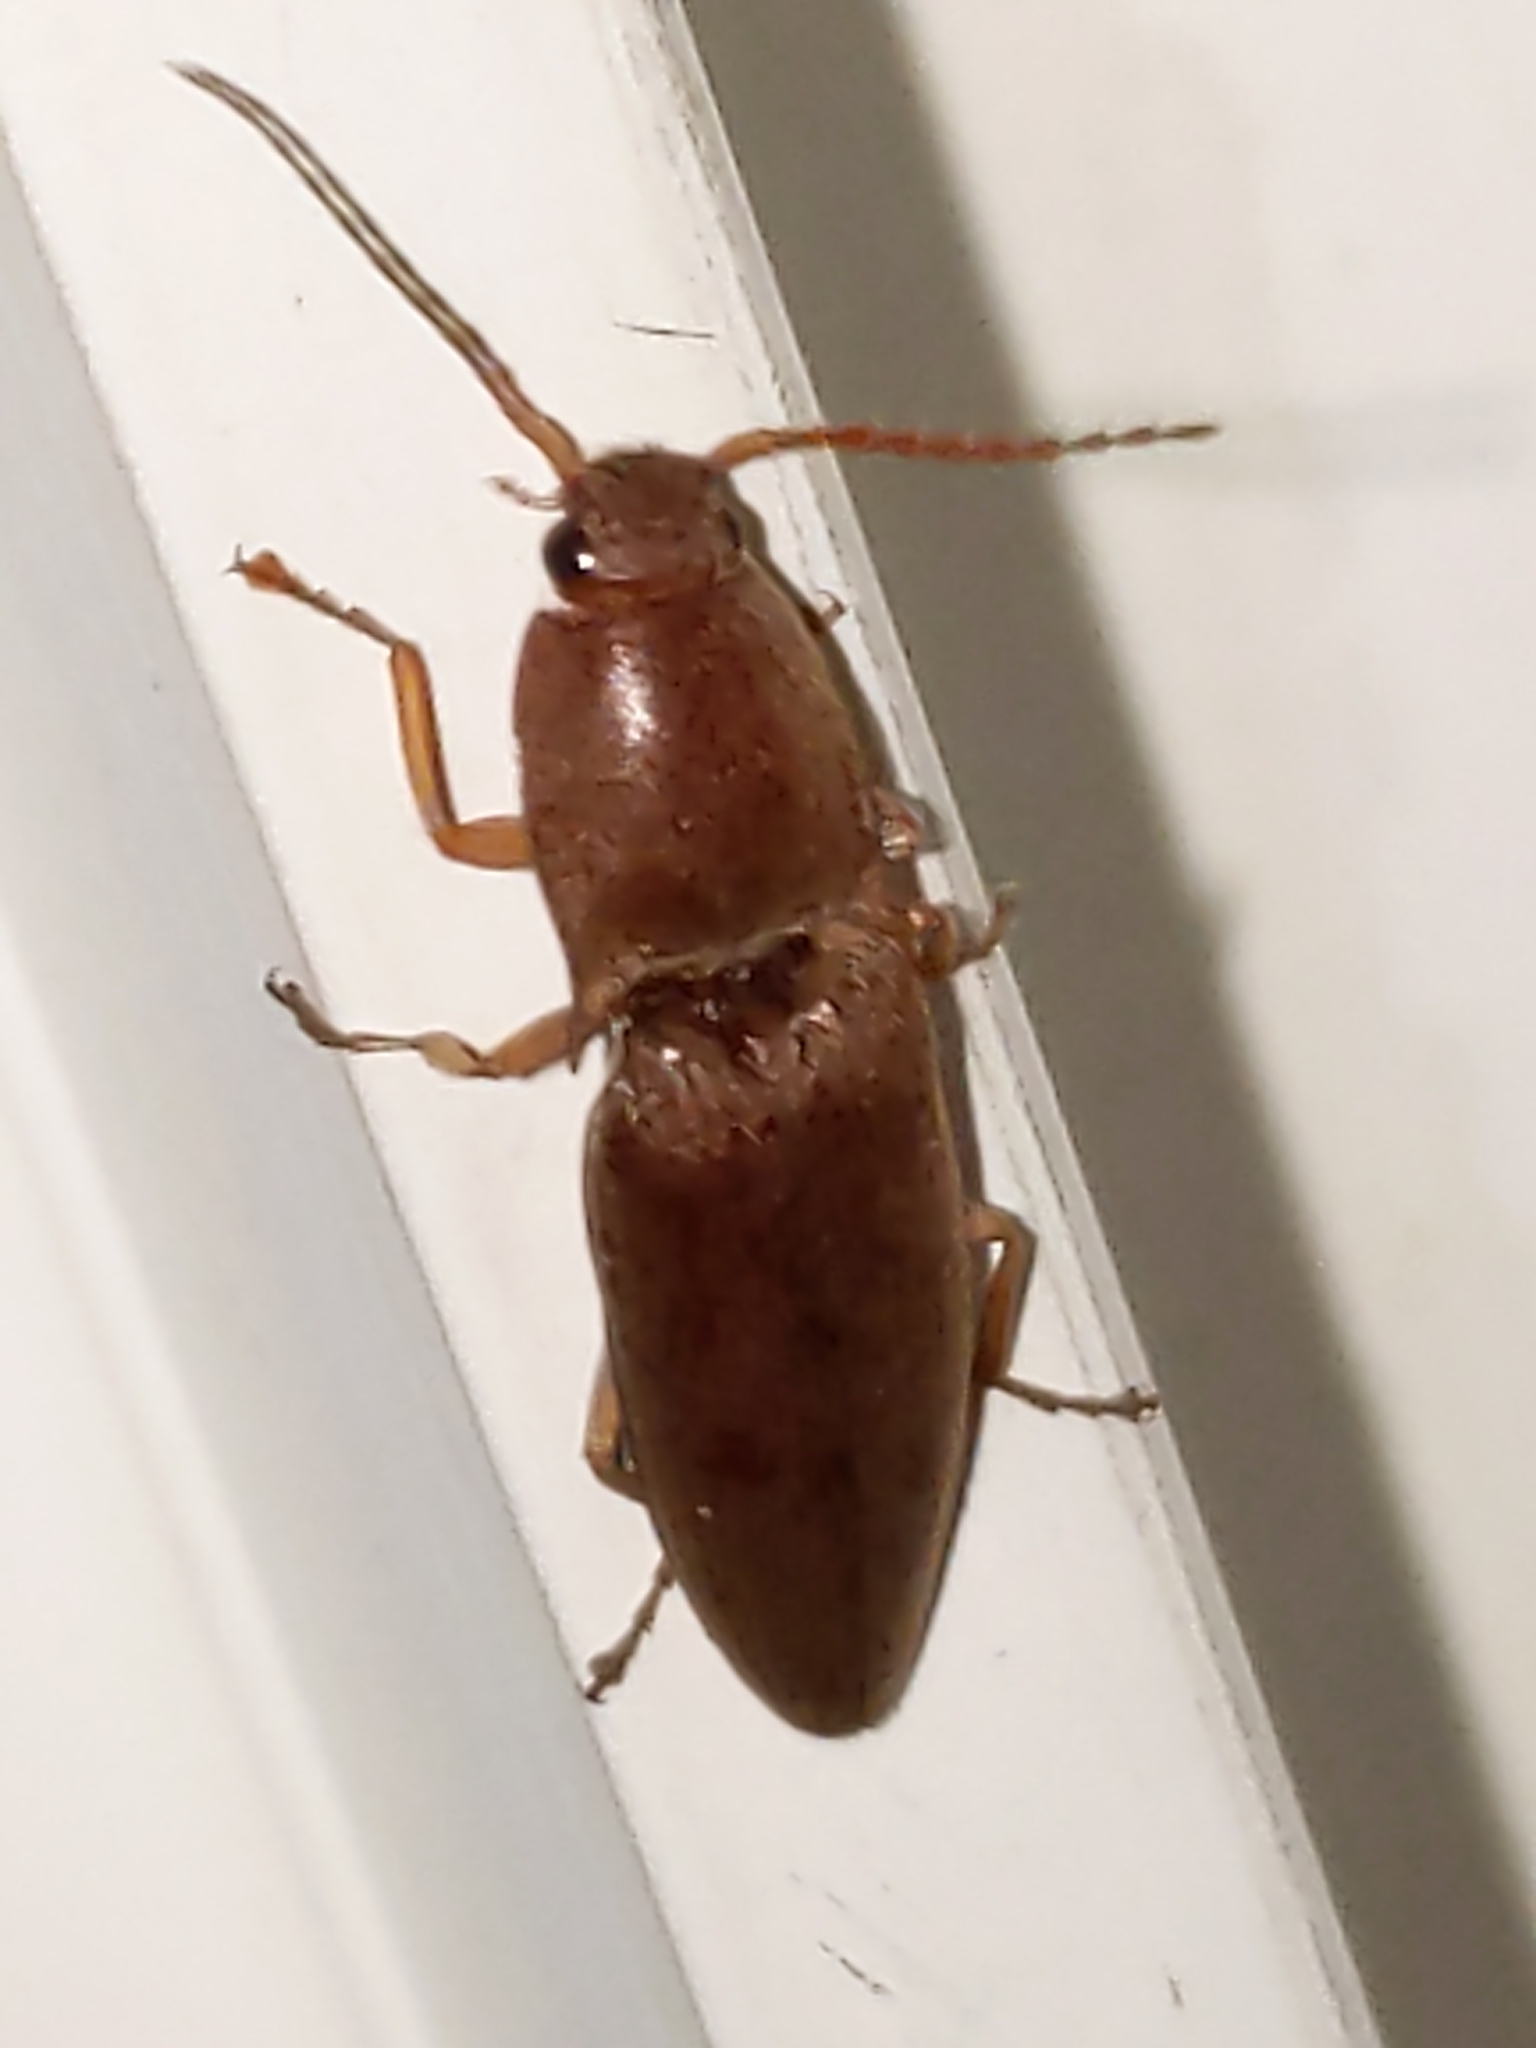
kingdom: Animalia
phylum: Arthropoda
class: Insecta
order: Coleoptera
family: Elateridae
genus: Monocrepidius
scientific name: Monocrepidius lividus
